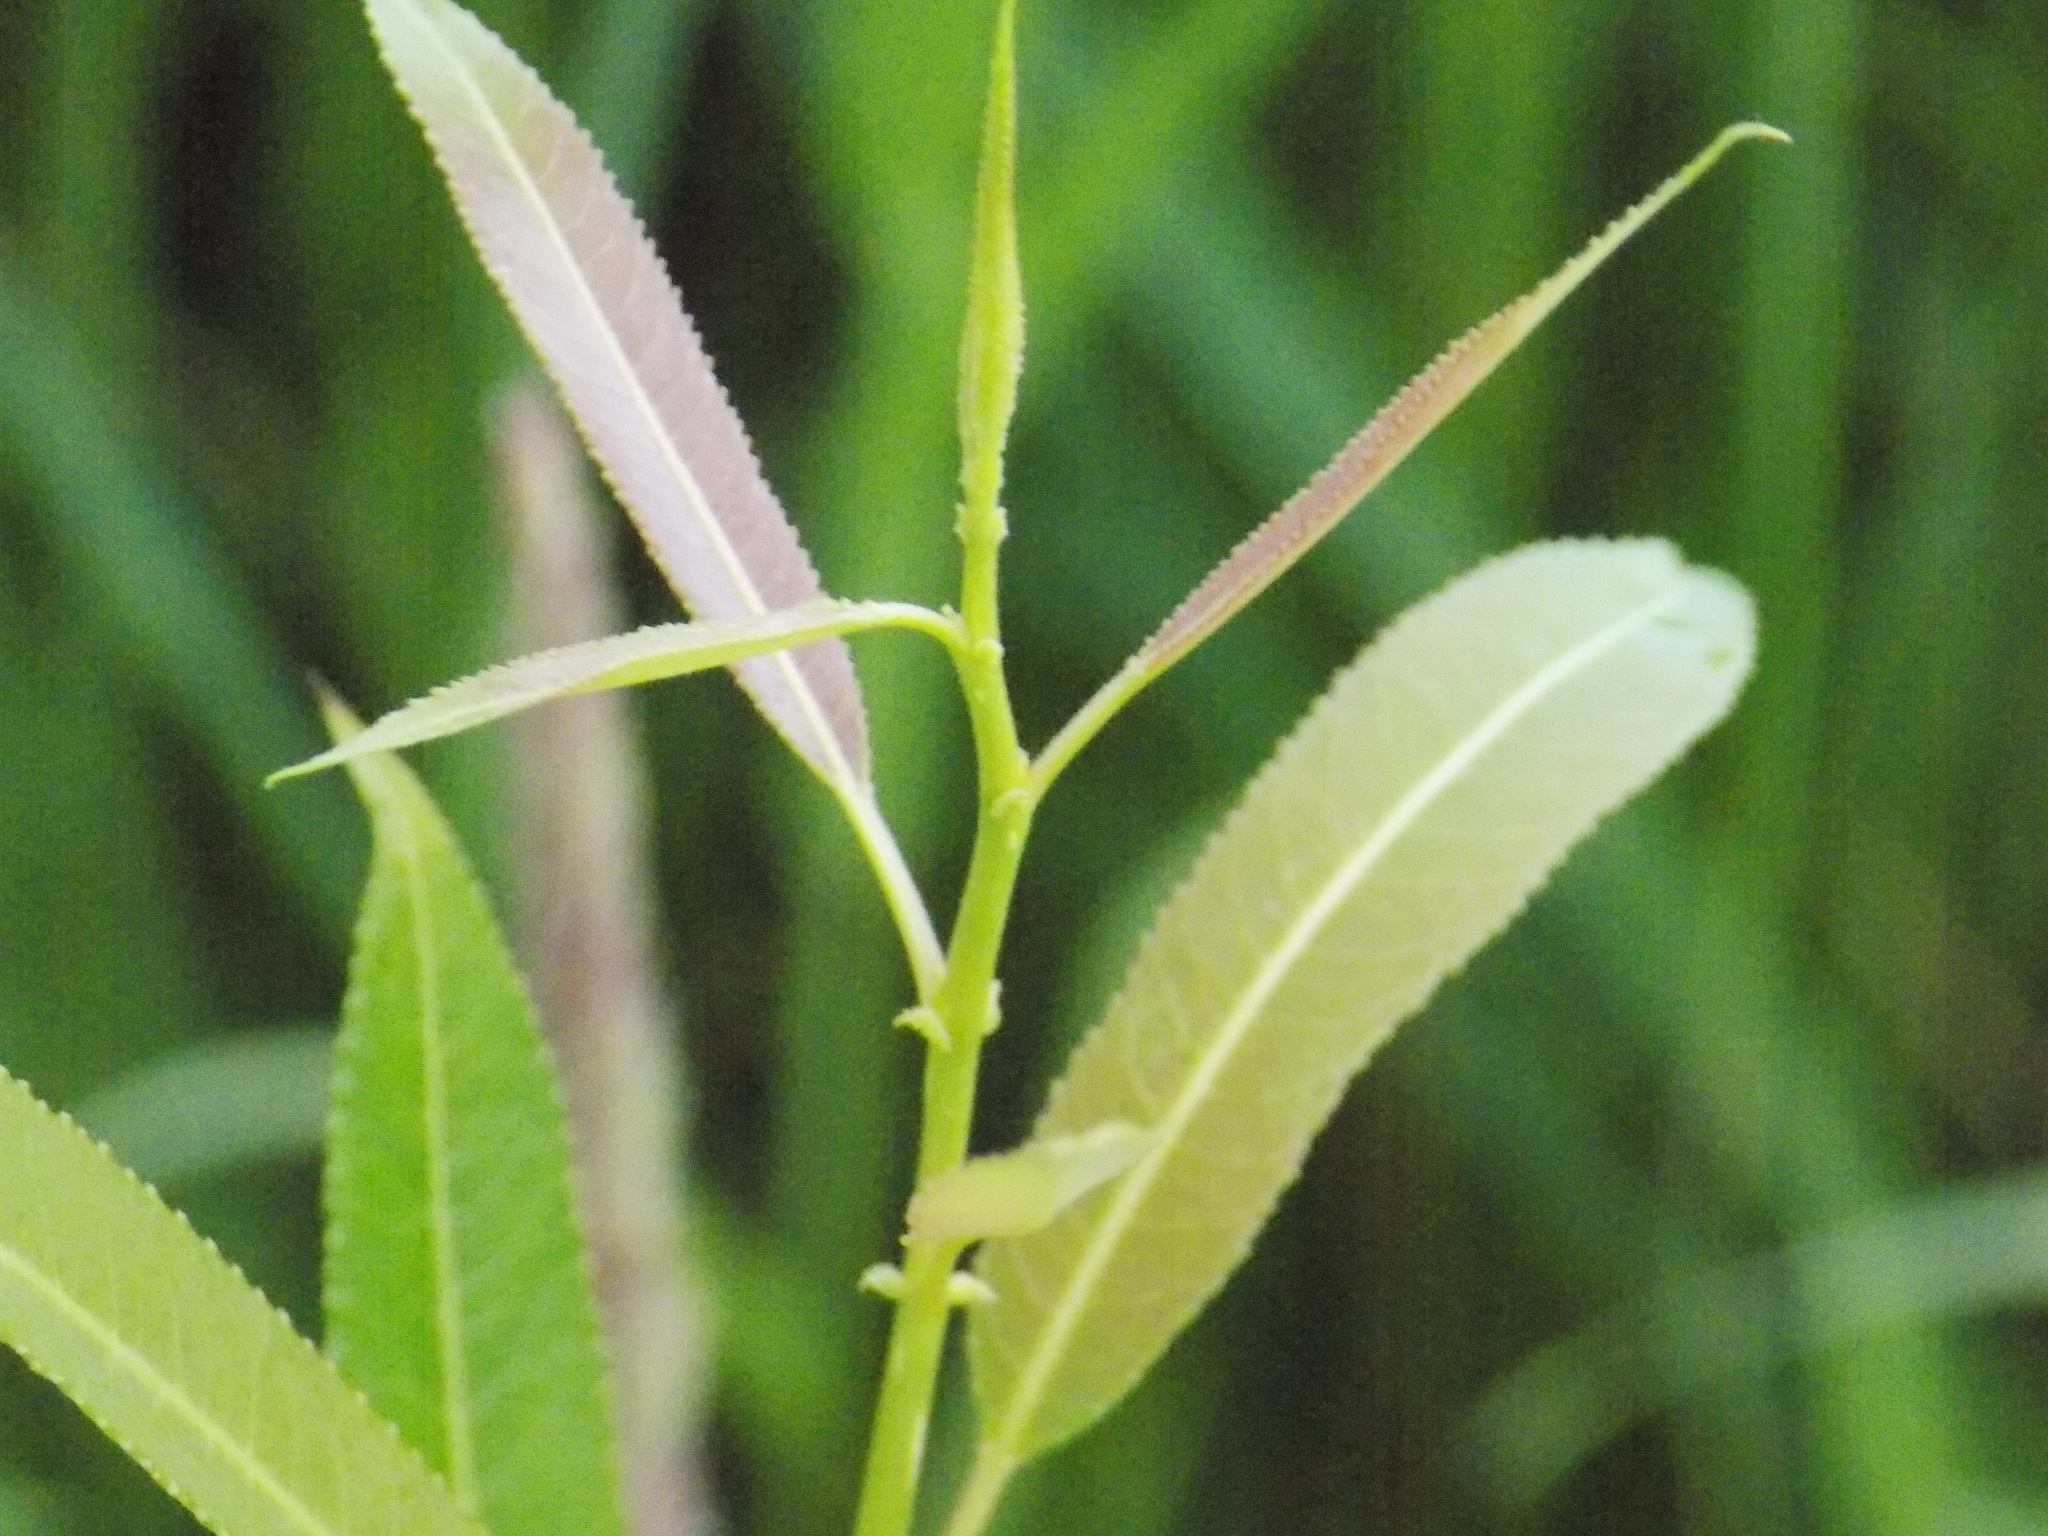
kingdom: Plantae
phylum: Tracheophyta
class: Magnoliopsida
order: Malpighiales
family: Salicaceae
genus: Salix
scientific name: Salix triandra
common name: Almond willow
